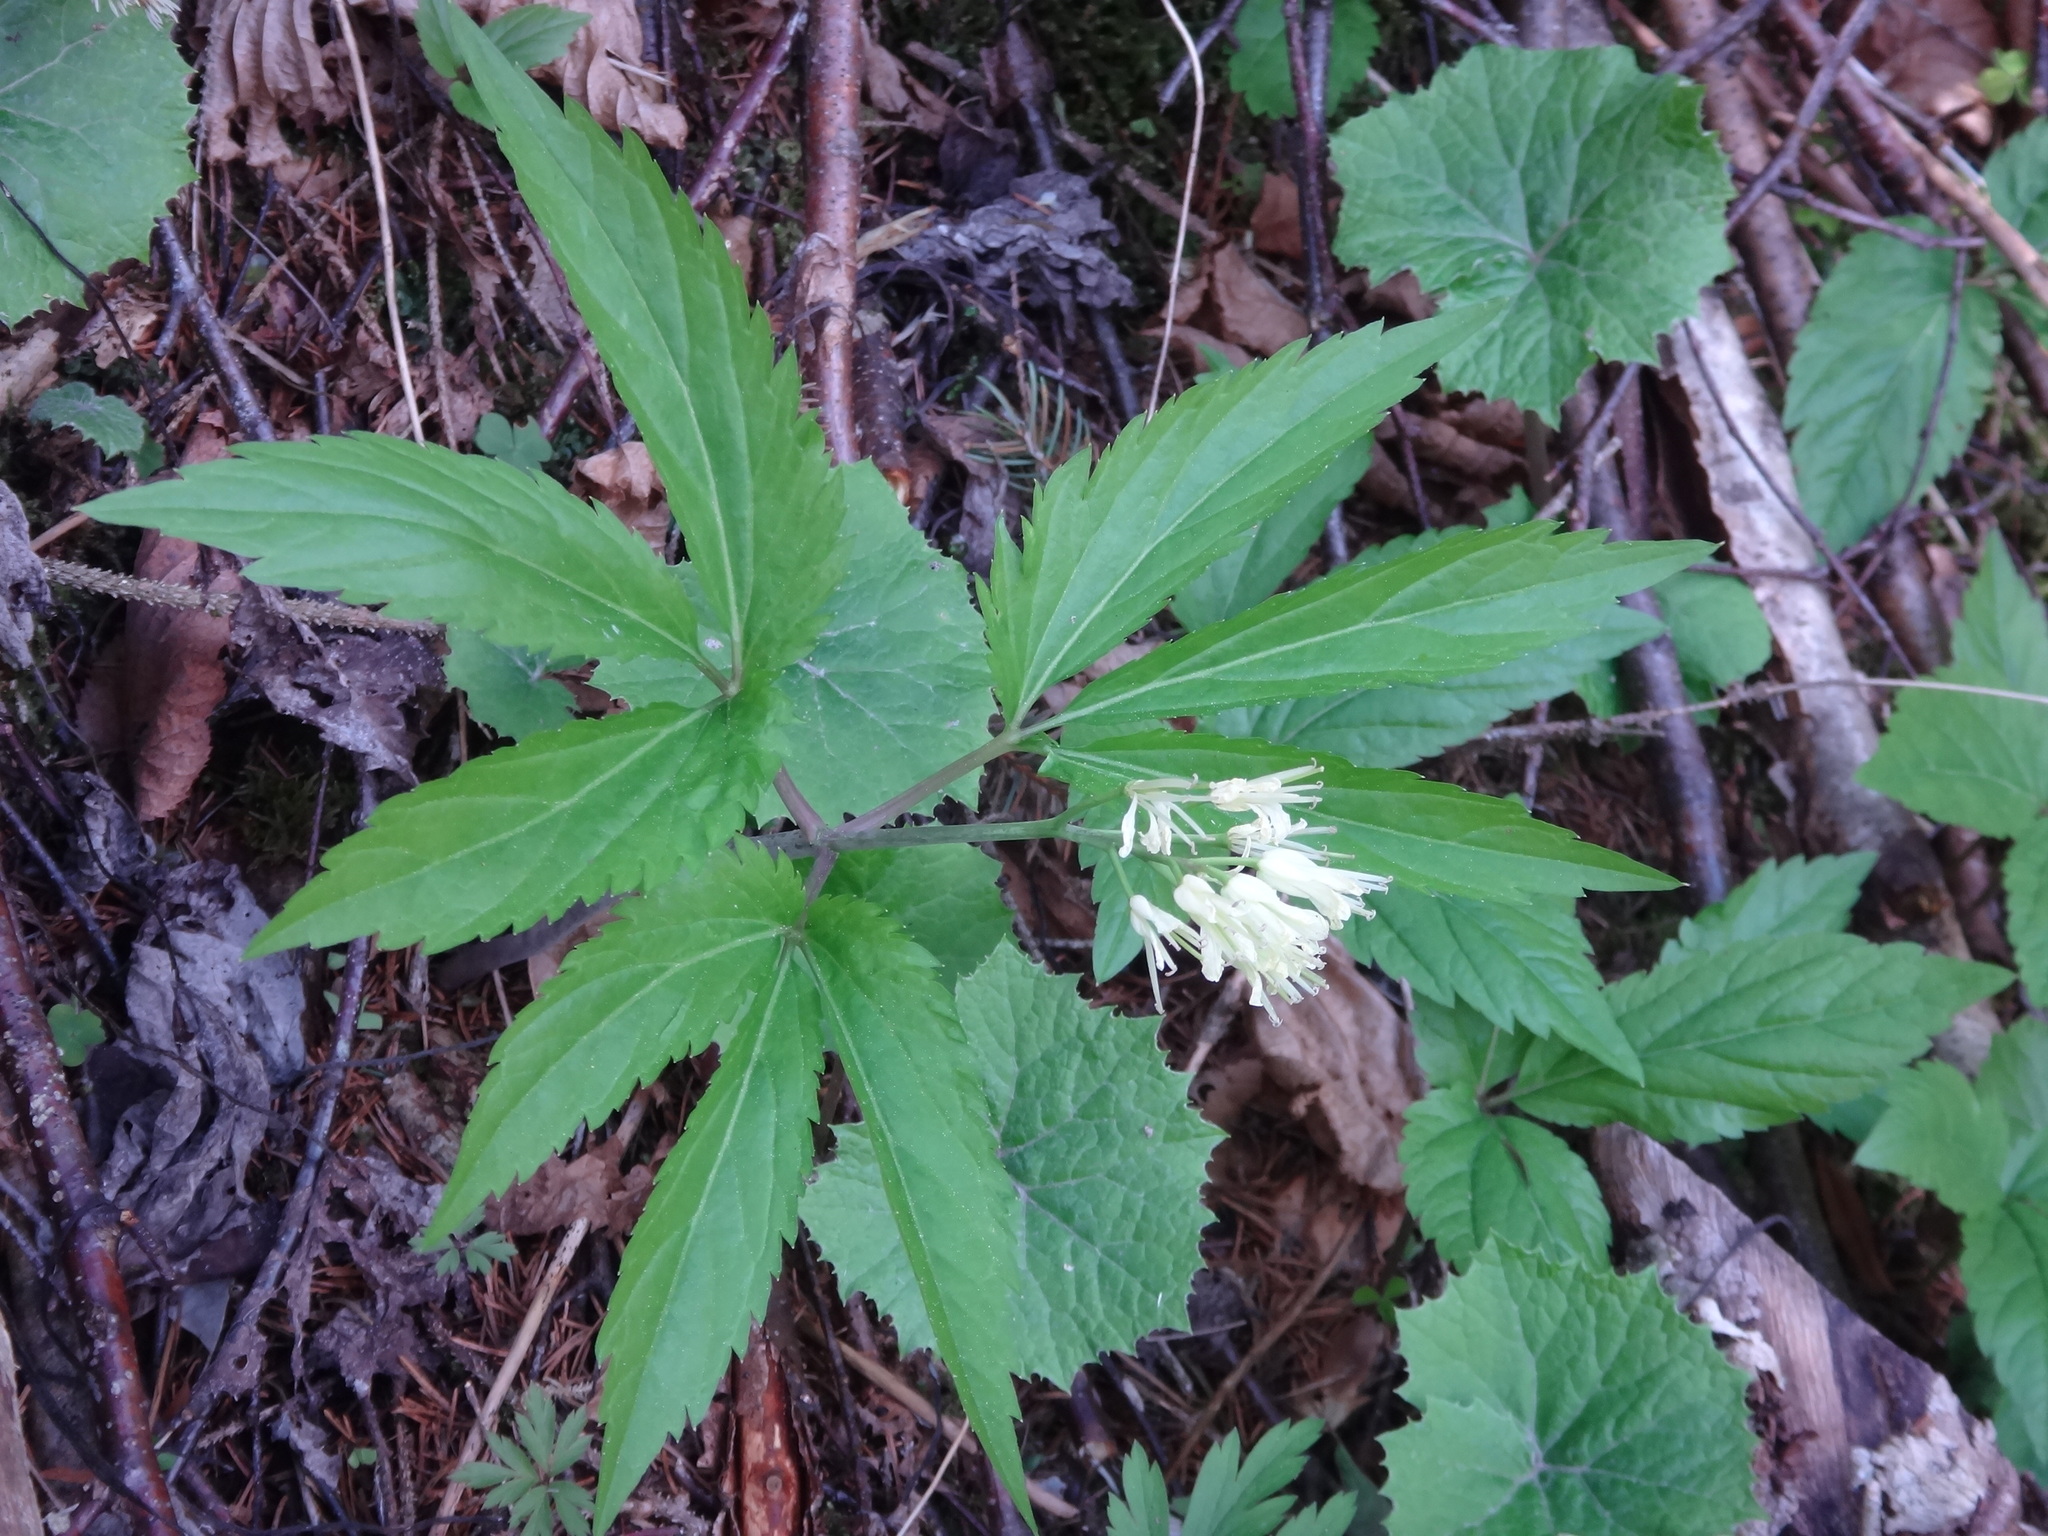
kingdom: Plantae
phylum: Tracheophyta
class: Magnoliopsida
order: Brassicales
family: Brassicaceae
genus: Cardamine
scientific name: Cardamine enneaphyllos
